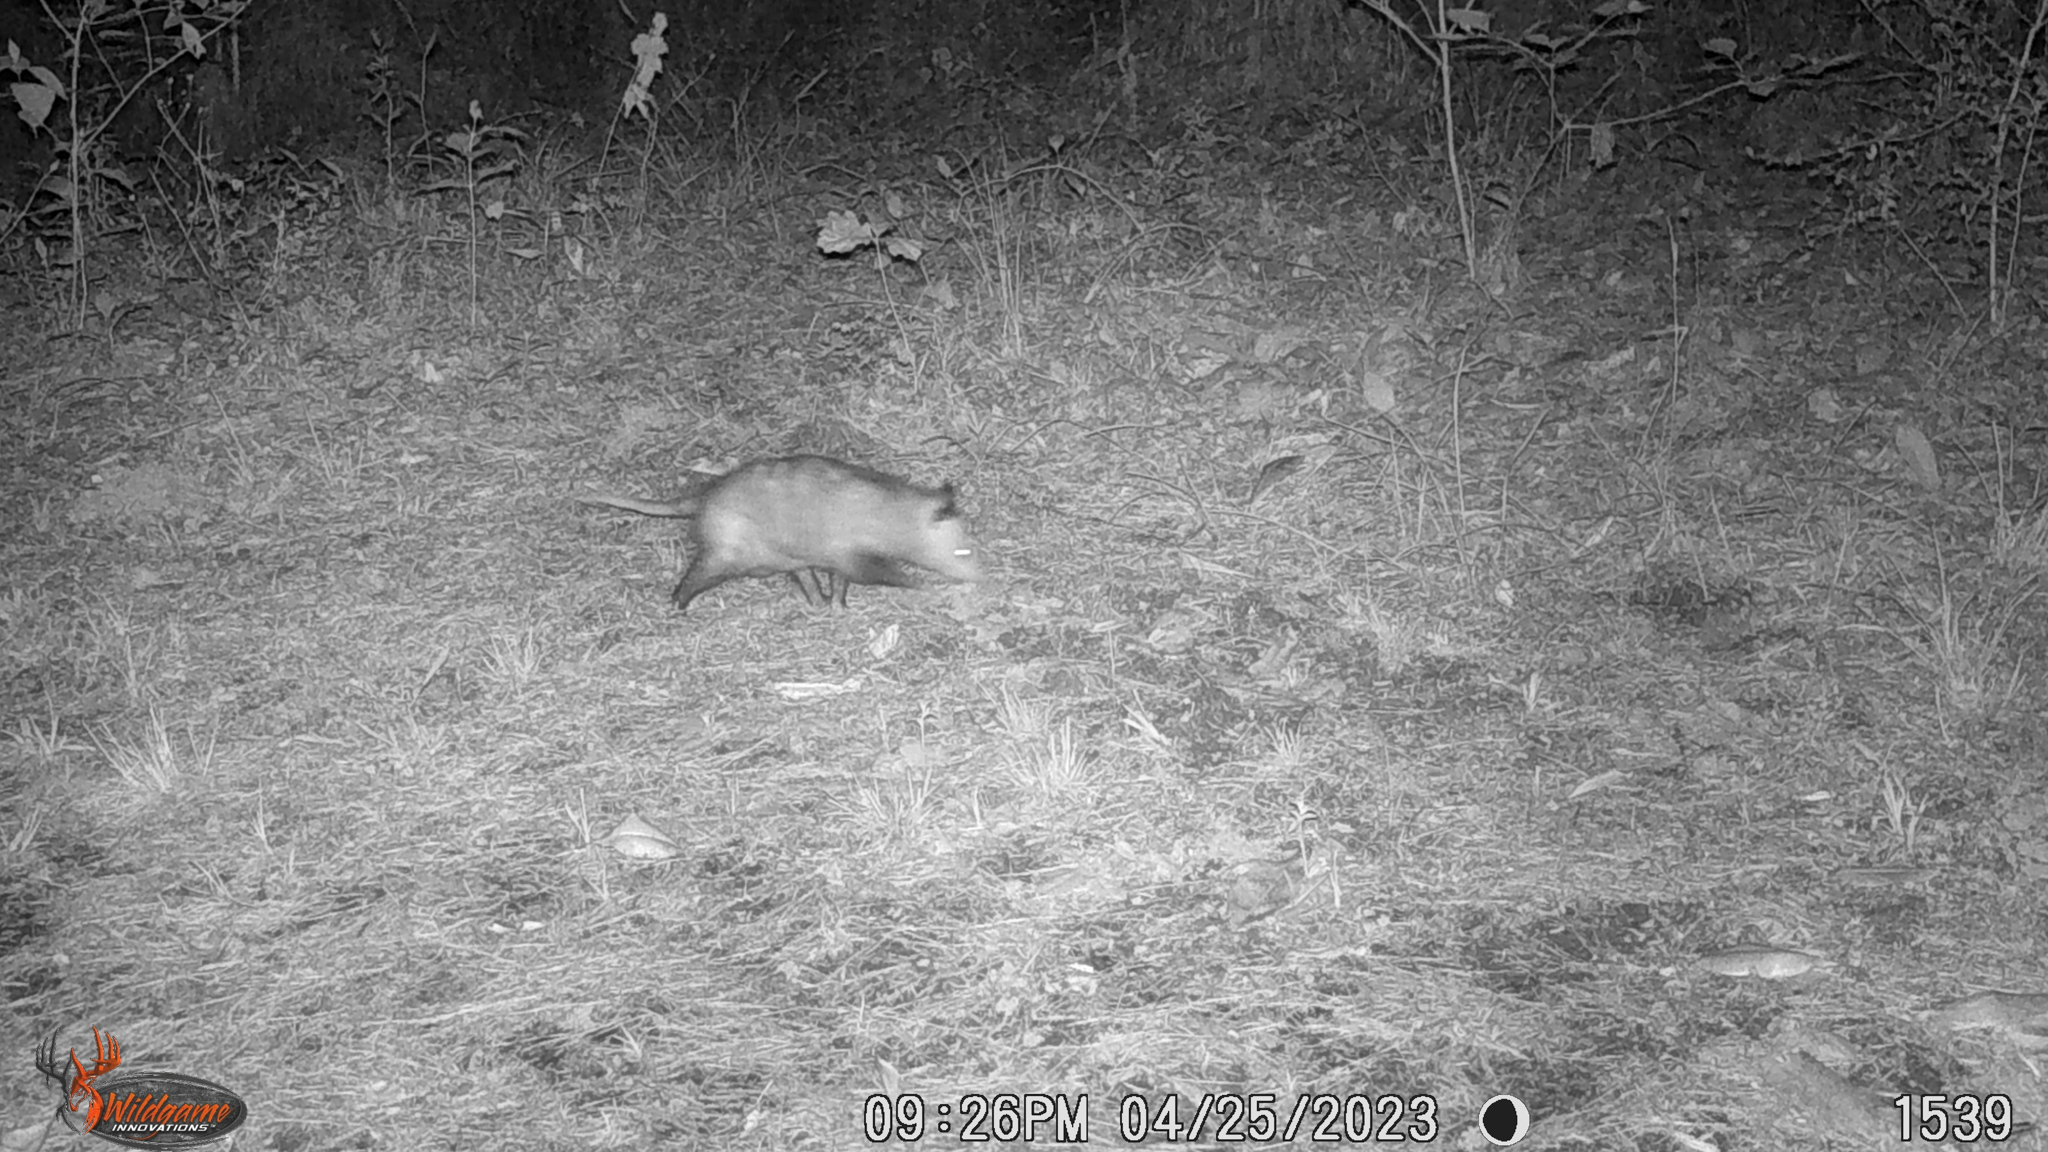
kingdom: Animalia
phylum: Chordata
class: Mammalia
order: Didelphimorphia
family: Didelphidae
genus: Didelphis
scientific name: Didelphis virginiana
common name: Virginia opossum
